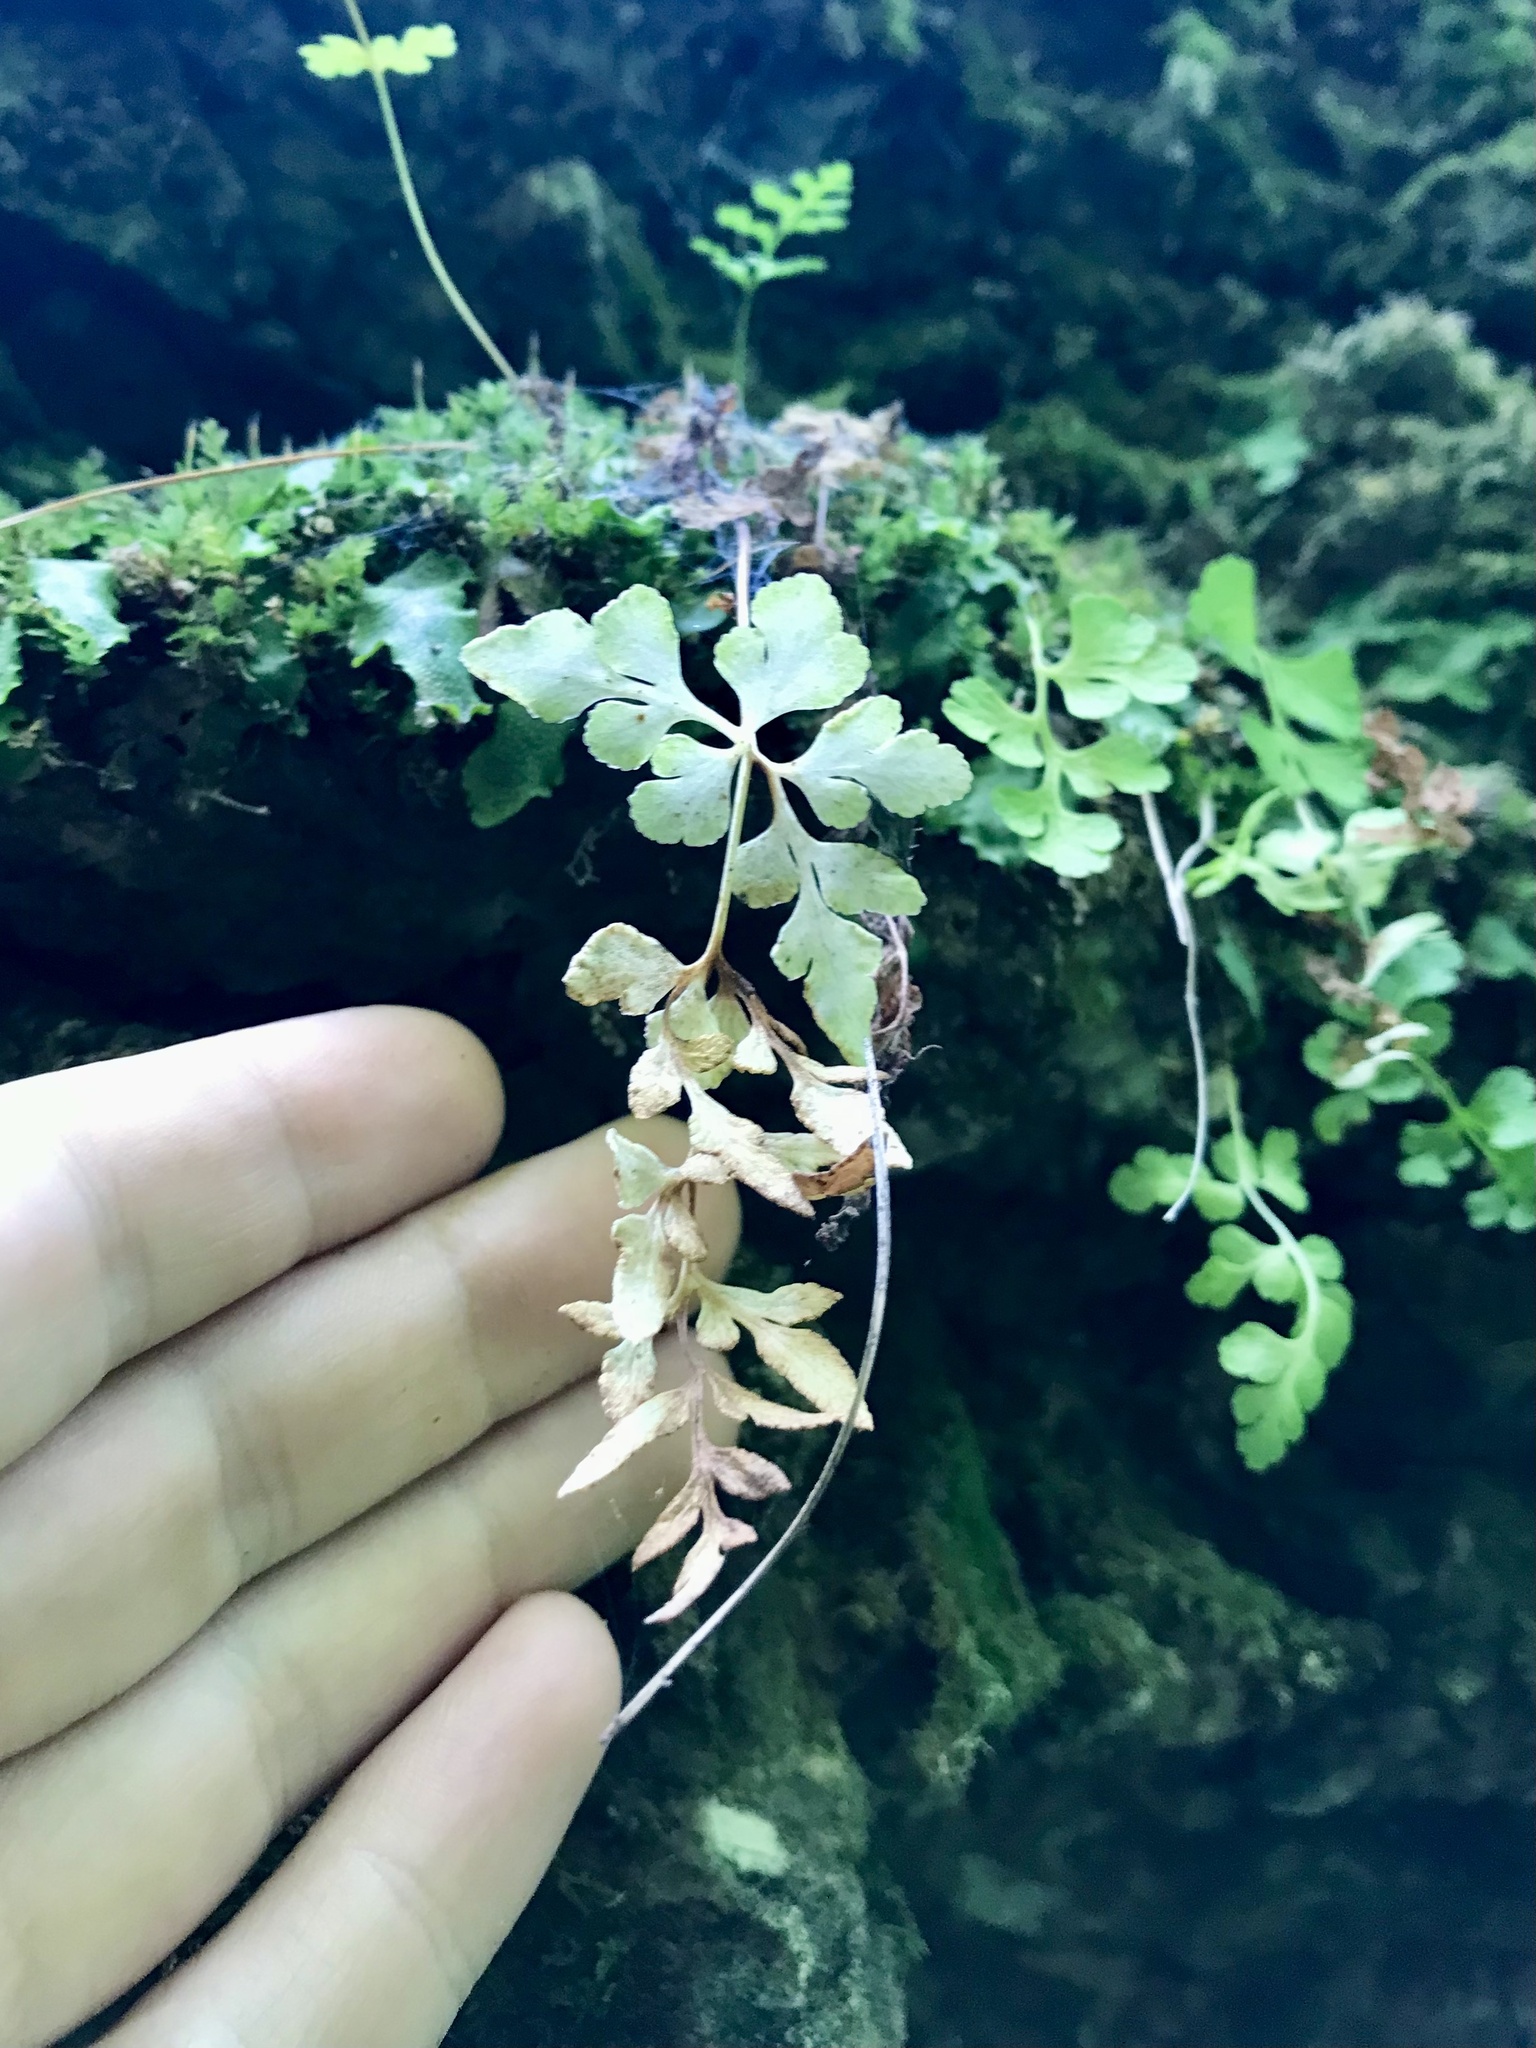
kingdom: Plantae
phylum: Tracheophyta
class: Polypodiopsida
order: Polypodiales
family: Pteridaceae
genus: Cryptogramma
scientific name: Cryptogramma stelleri
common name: Cliff-brake
